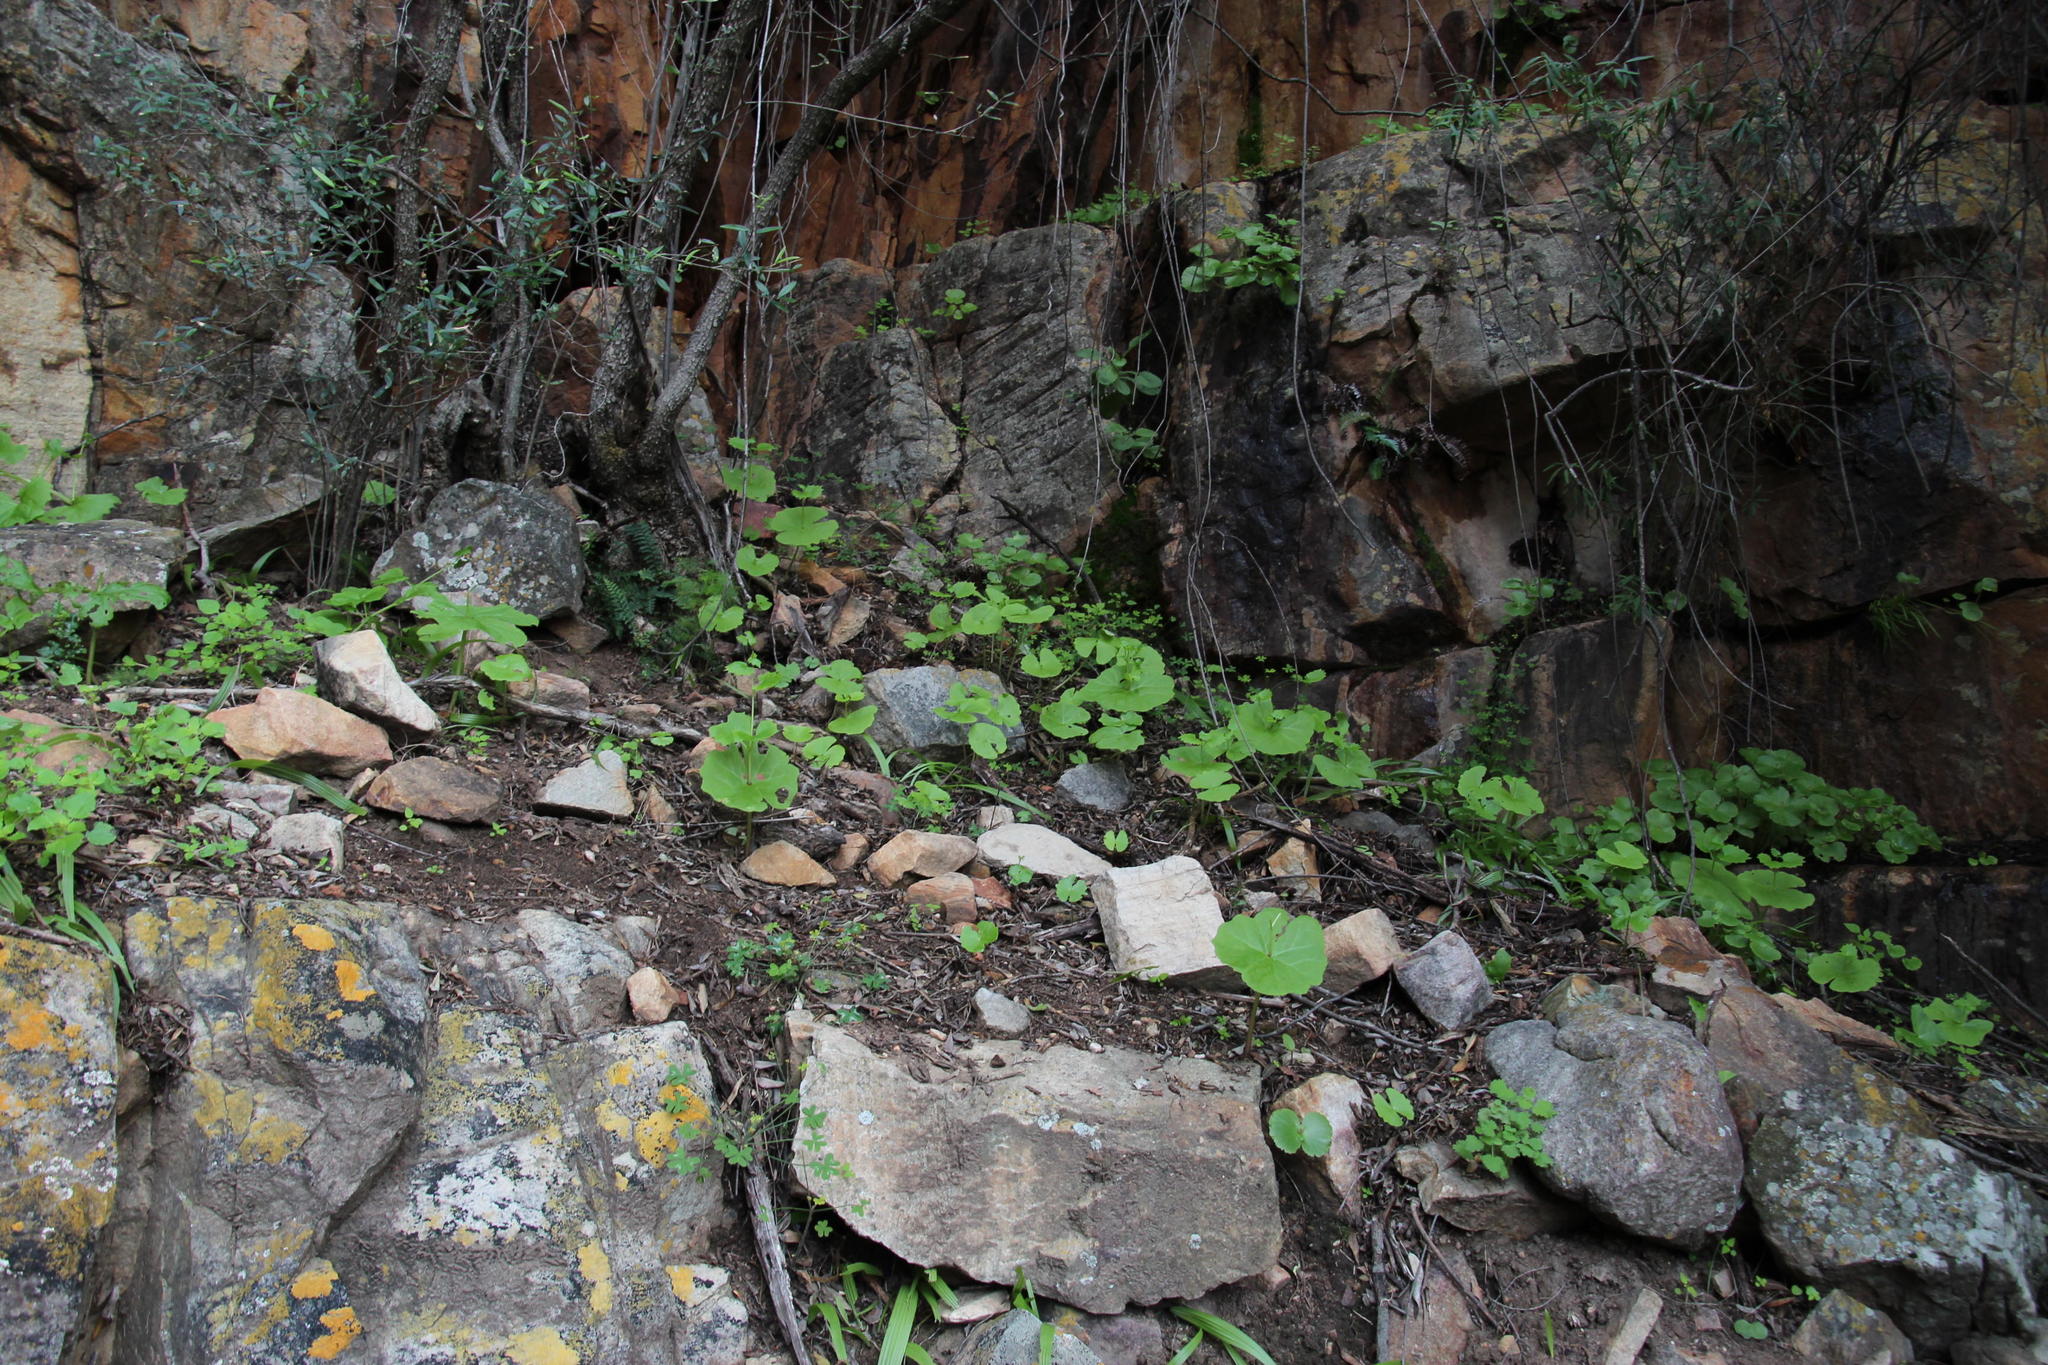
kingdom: Plantae
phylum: Tracheophyta
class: Magnoliopsida
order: Brassicales
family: Brassicaceae
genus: Chamira
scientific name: Chamira circaeoides
